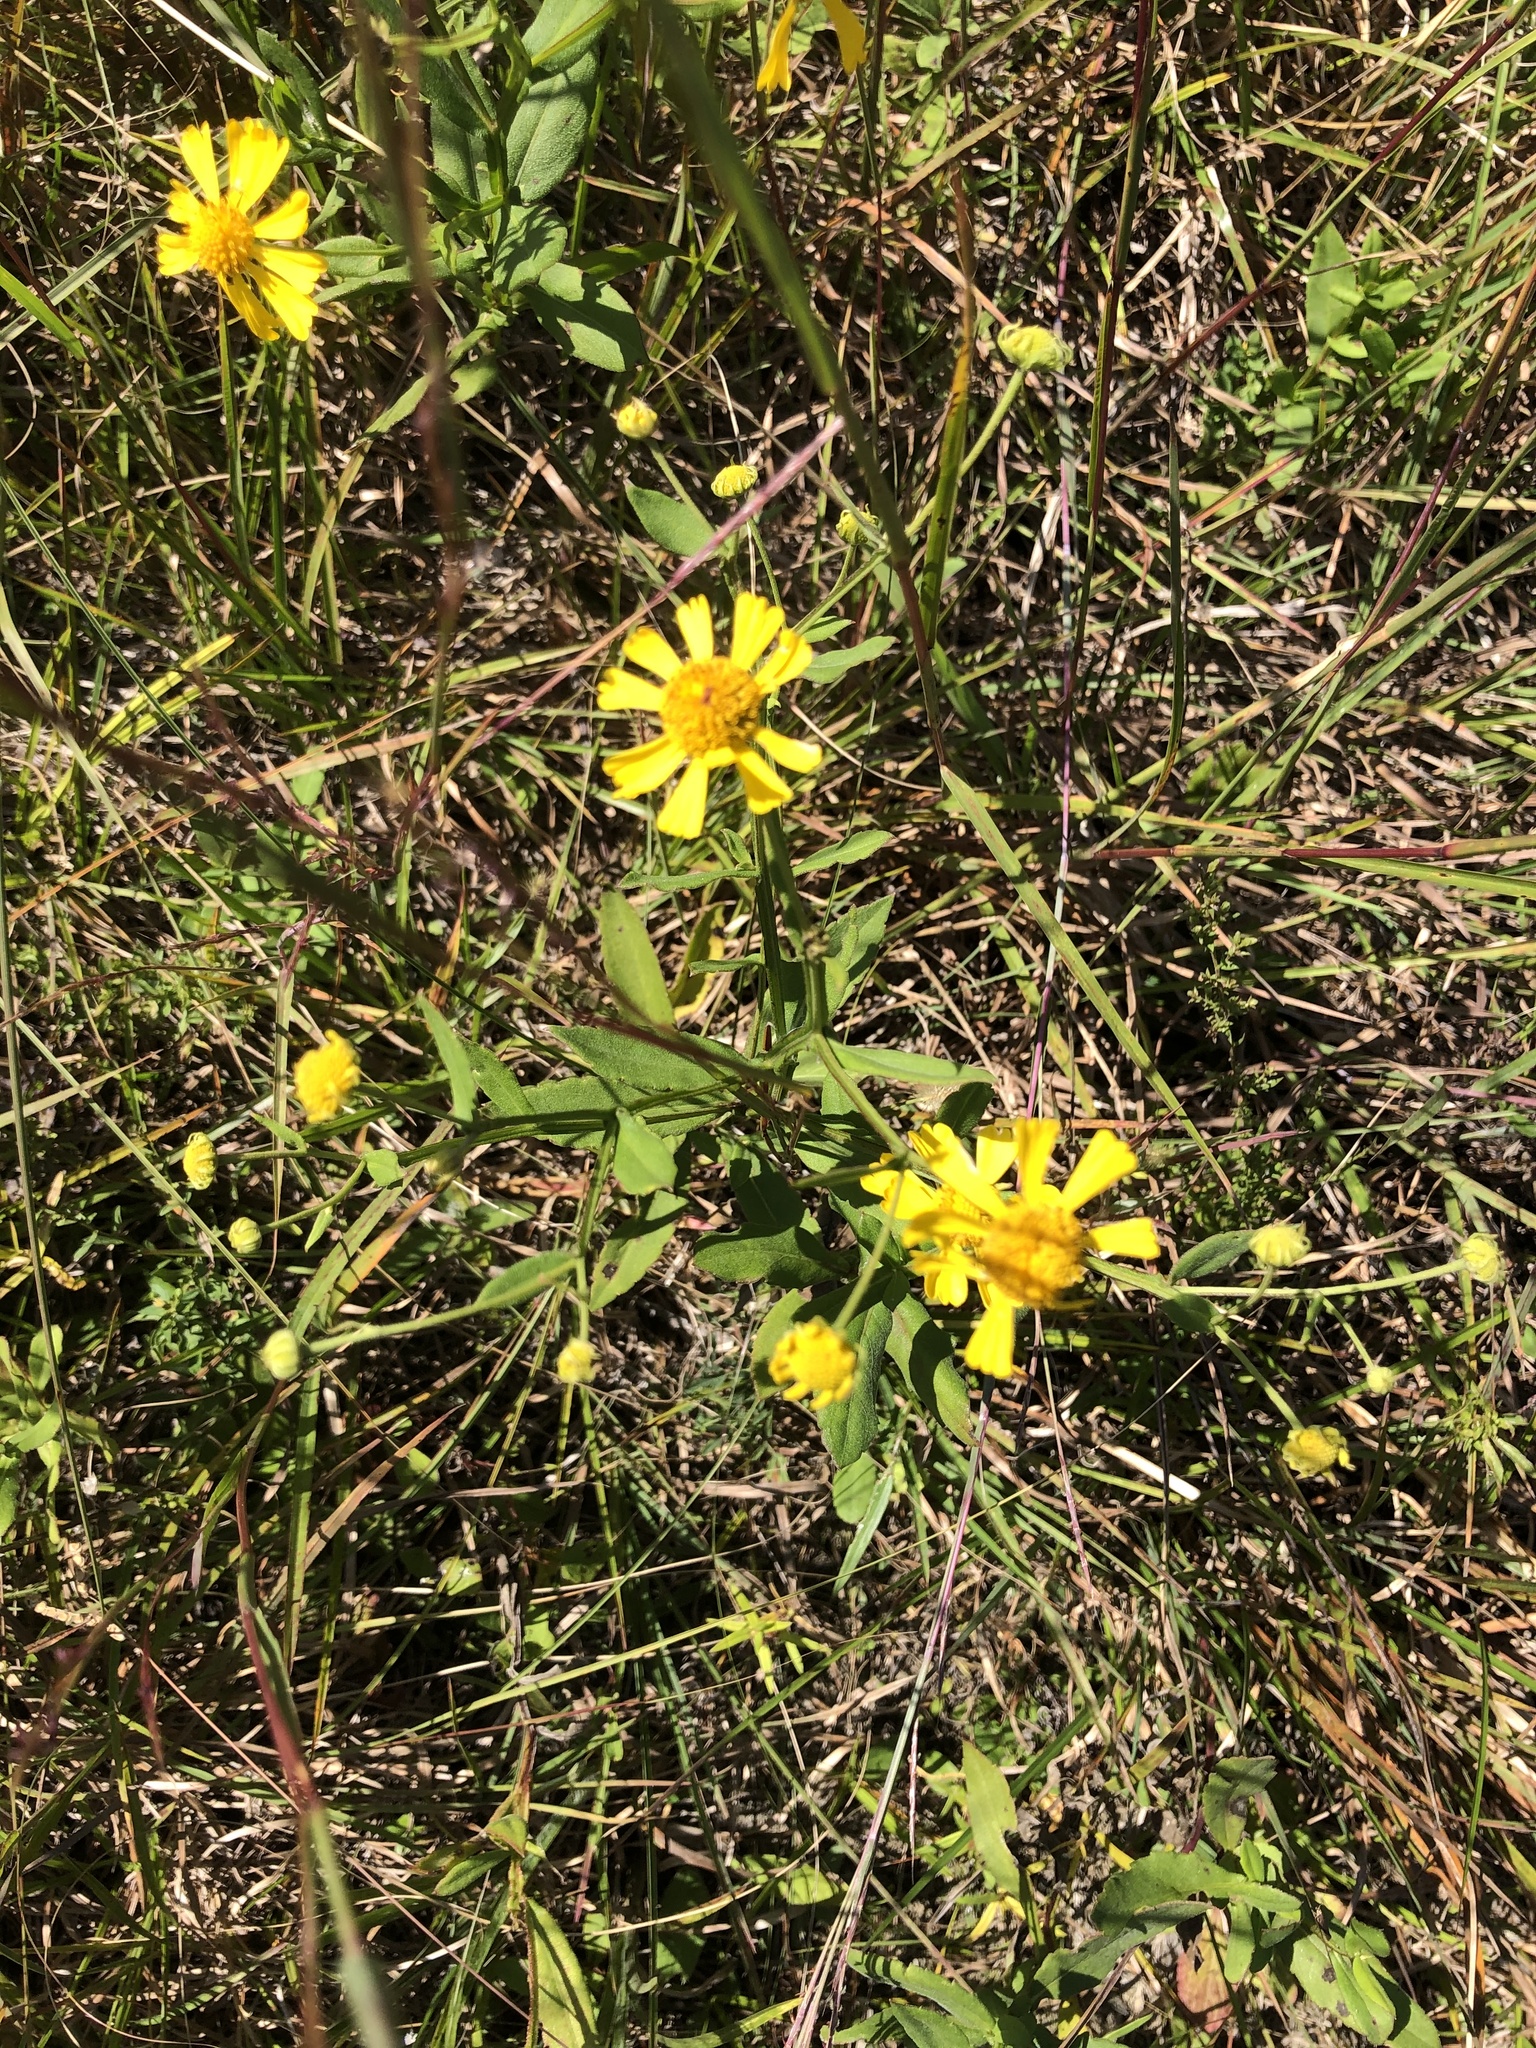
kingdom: Plantae
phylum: Tracheophyta
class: Magnoliopsida
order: Asterales
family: Asteraceae
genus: Helenium
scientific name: Helenium autumnale
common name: Sneezeweed
